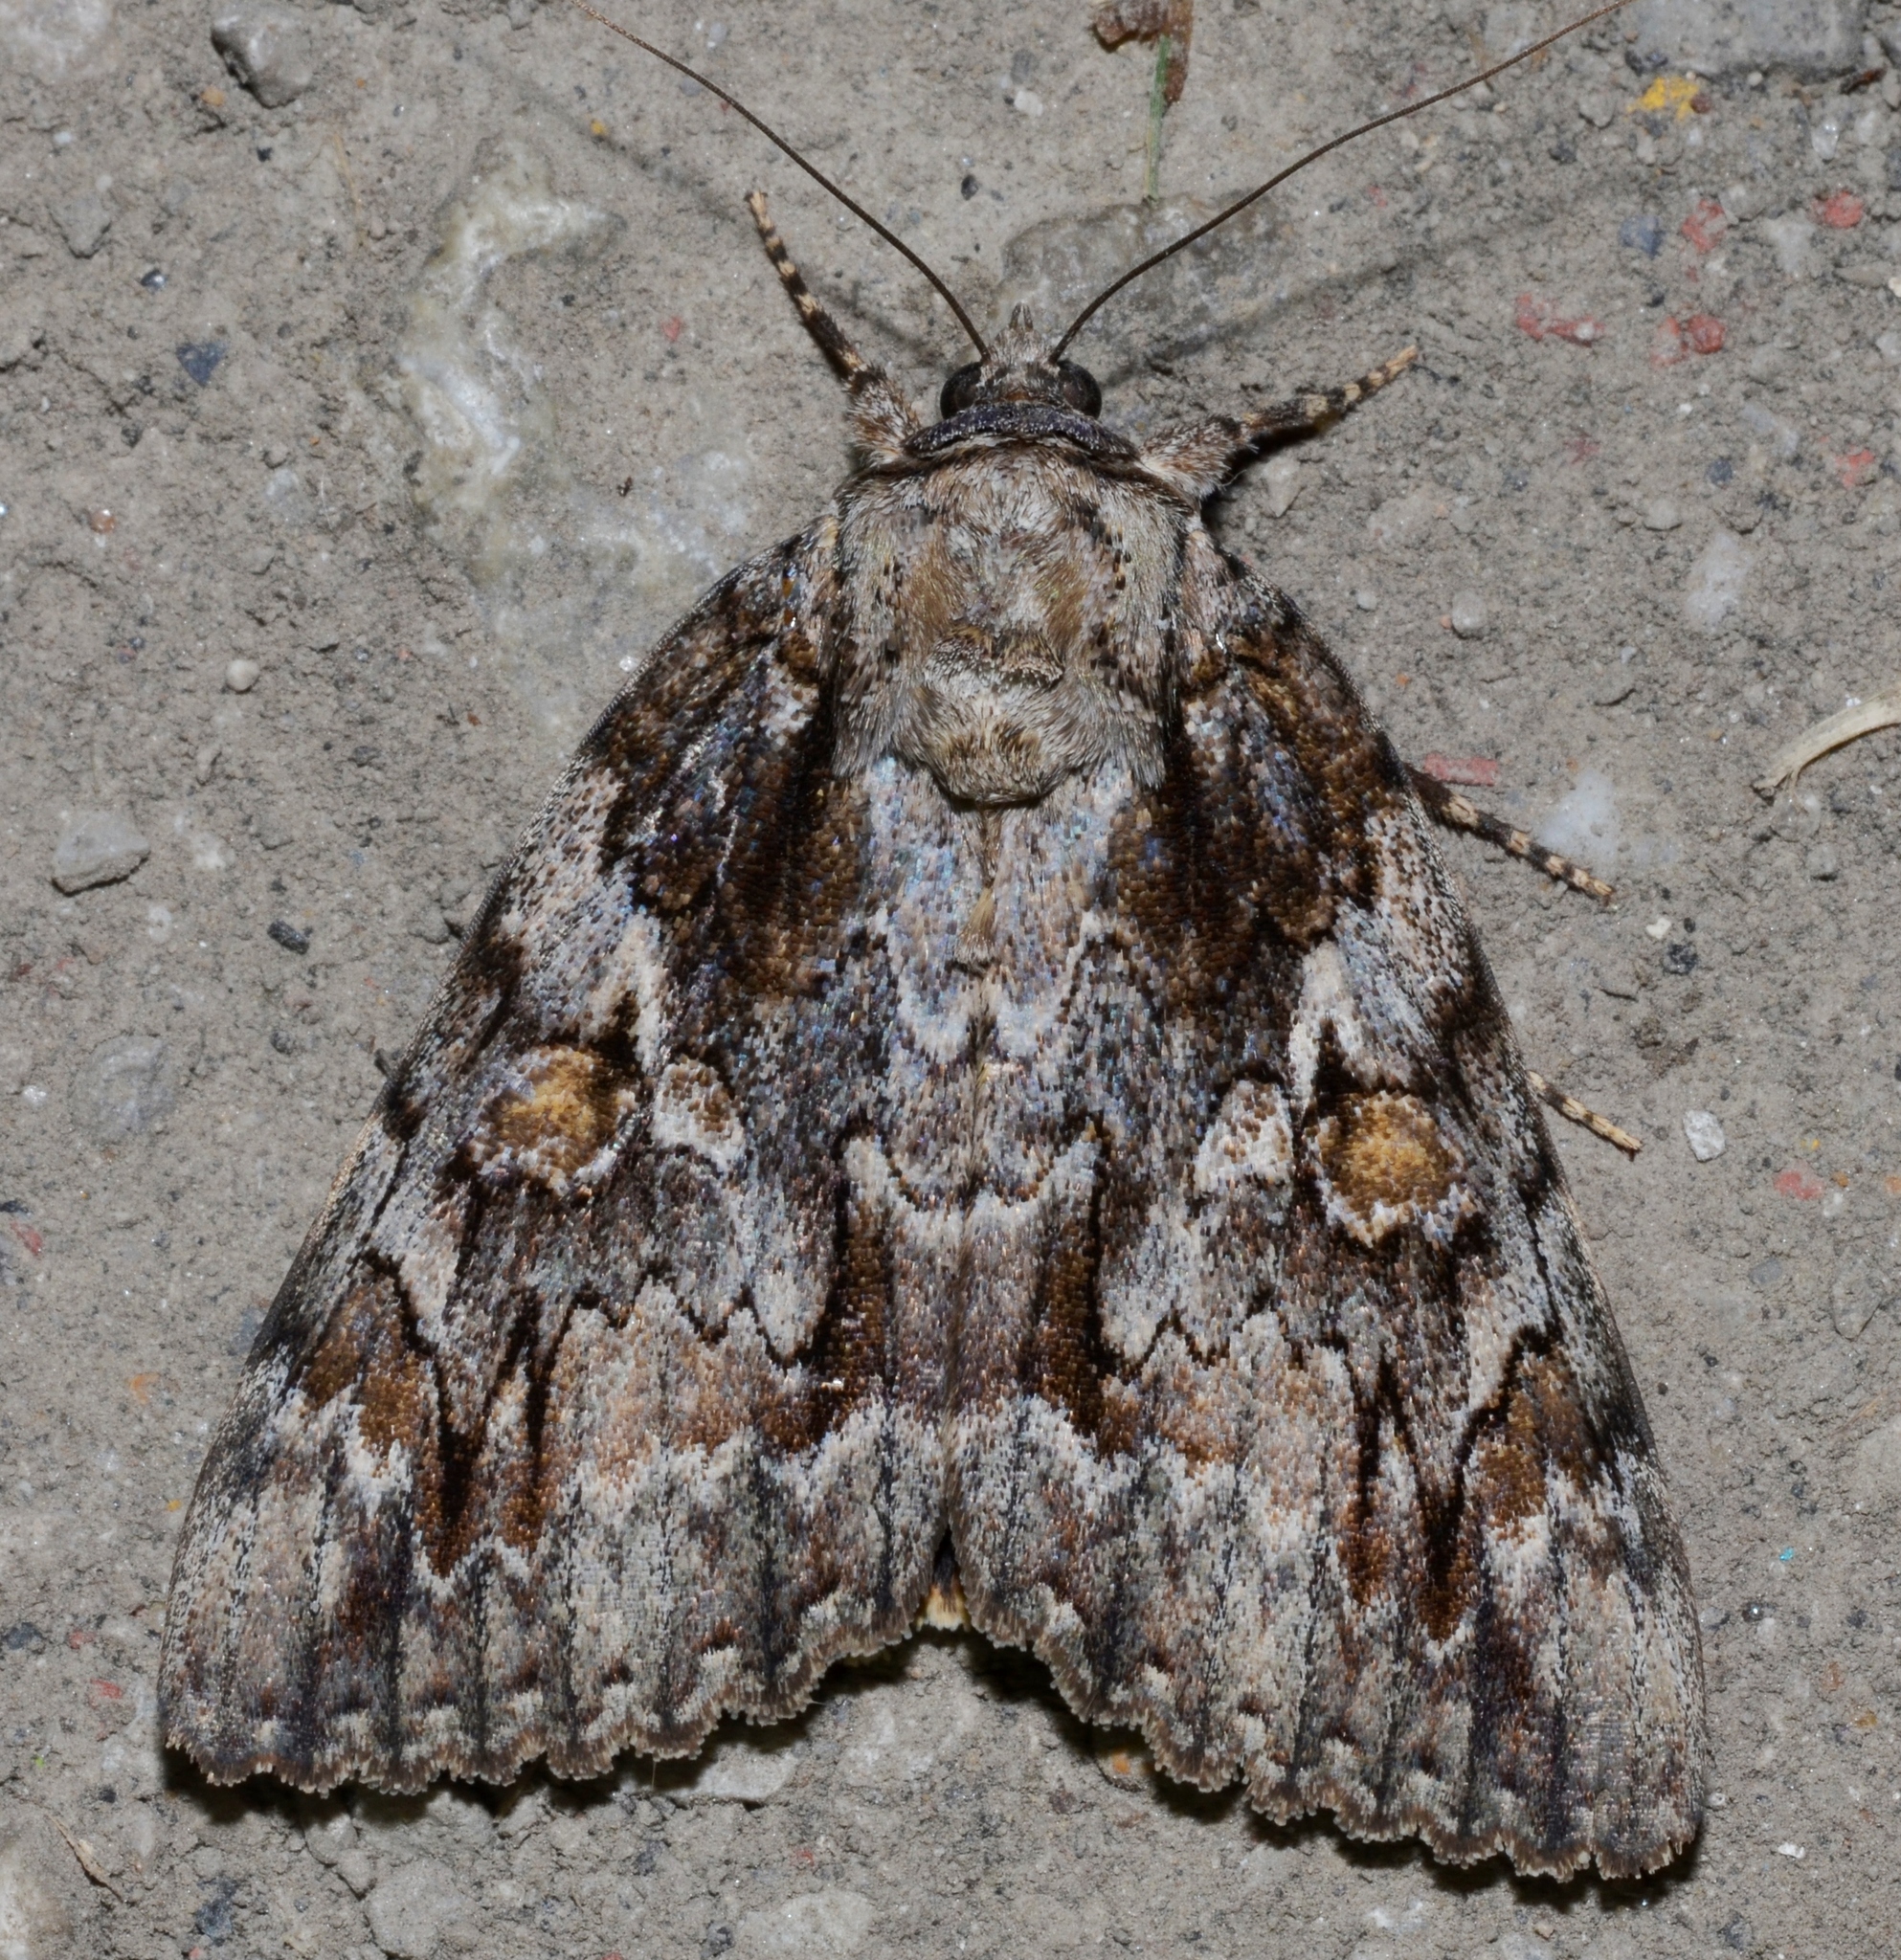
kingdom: Animalia
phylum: Arthropoda
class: Insecta
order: Lepidoptera
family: Erebidae
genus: Catocala
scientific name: Catocala neogama
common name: Bride underwing
